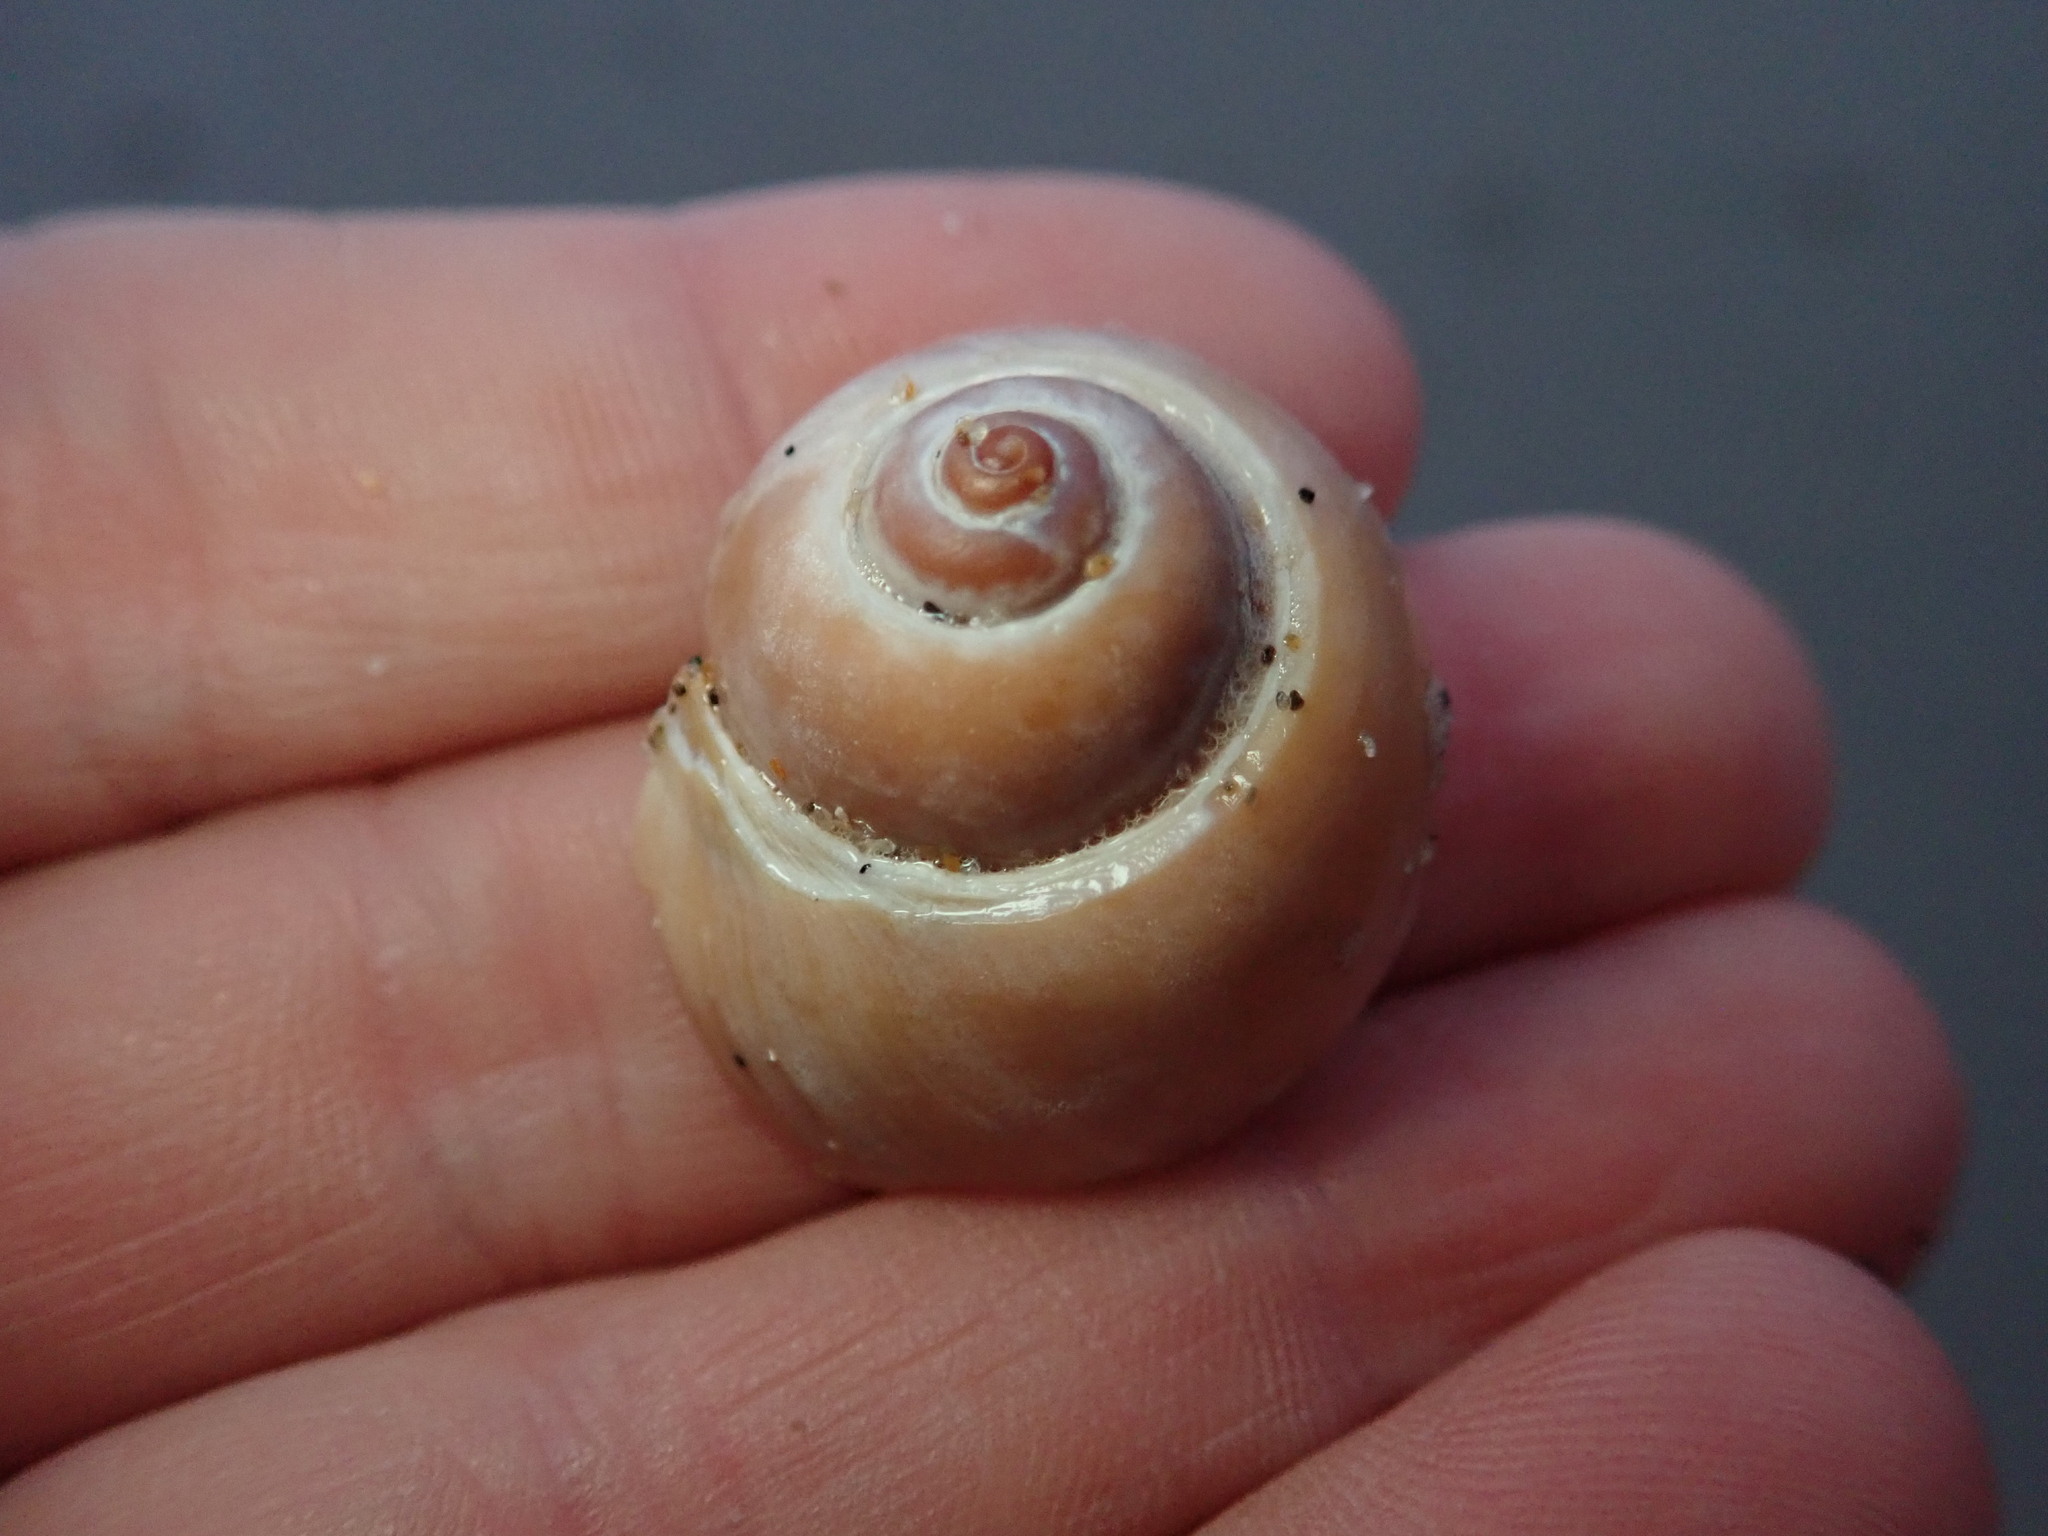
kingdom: Animalia
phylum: Mollusca
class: Gastropoda
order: Littorinimorpha
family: Naticidae
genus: Glossaulax
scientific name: Glossaulax reclusiana
